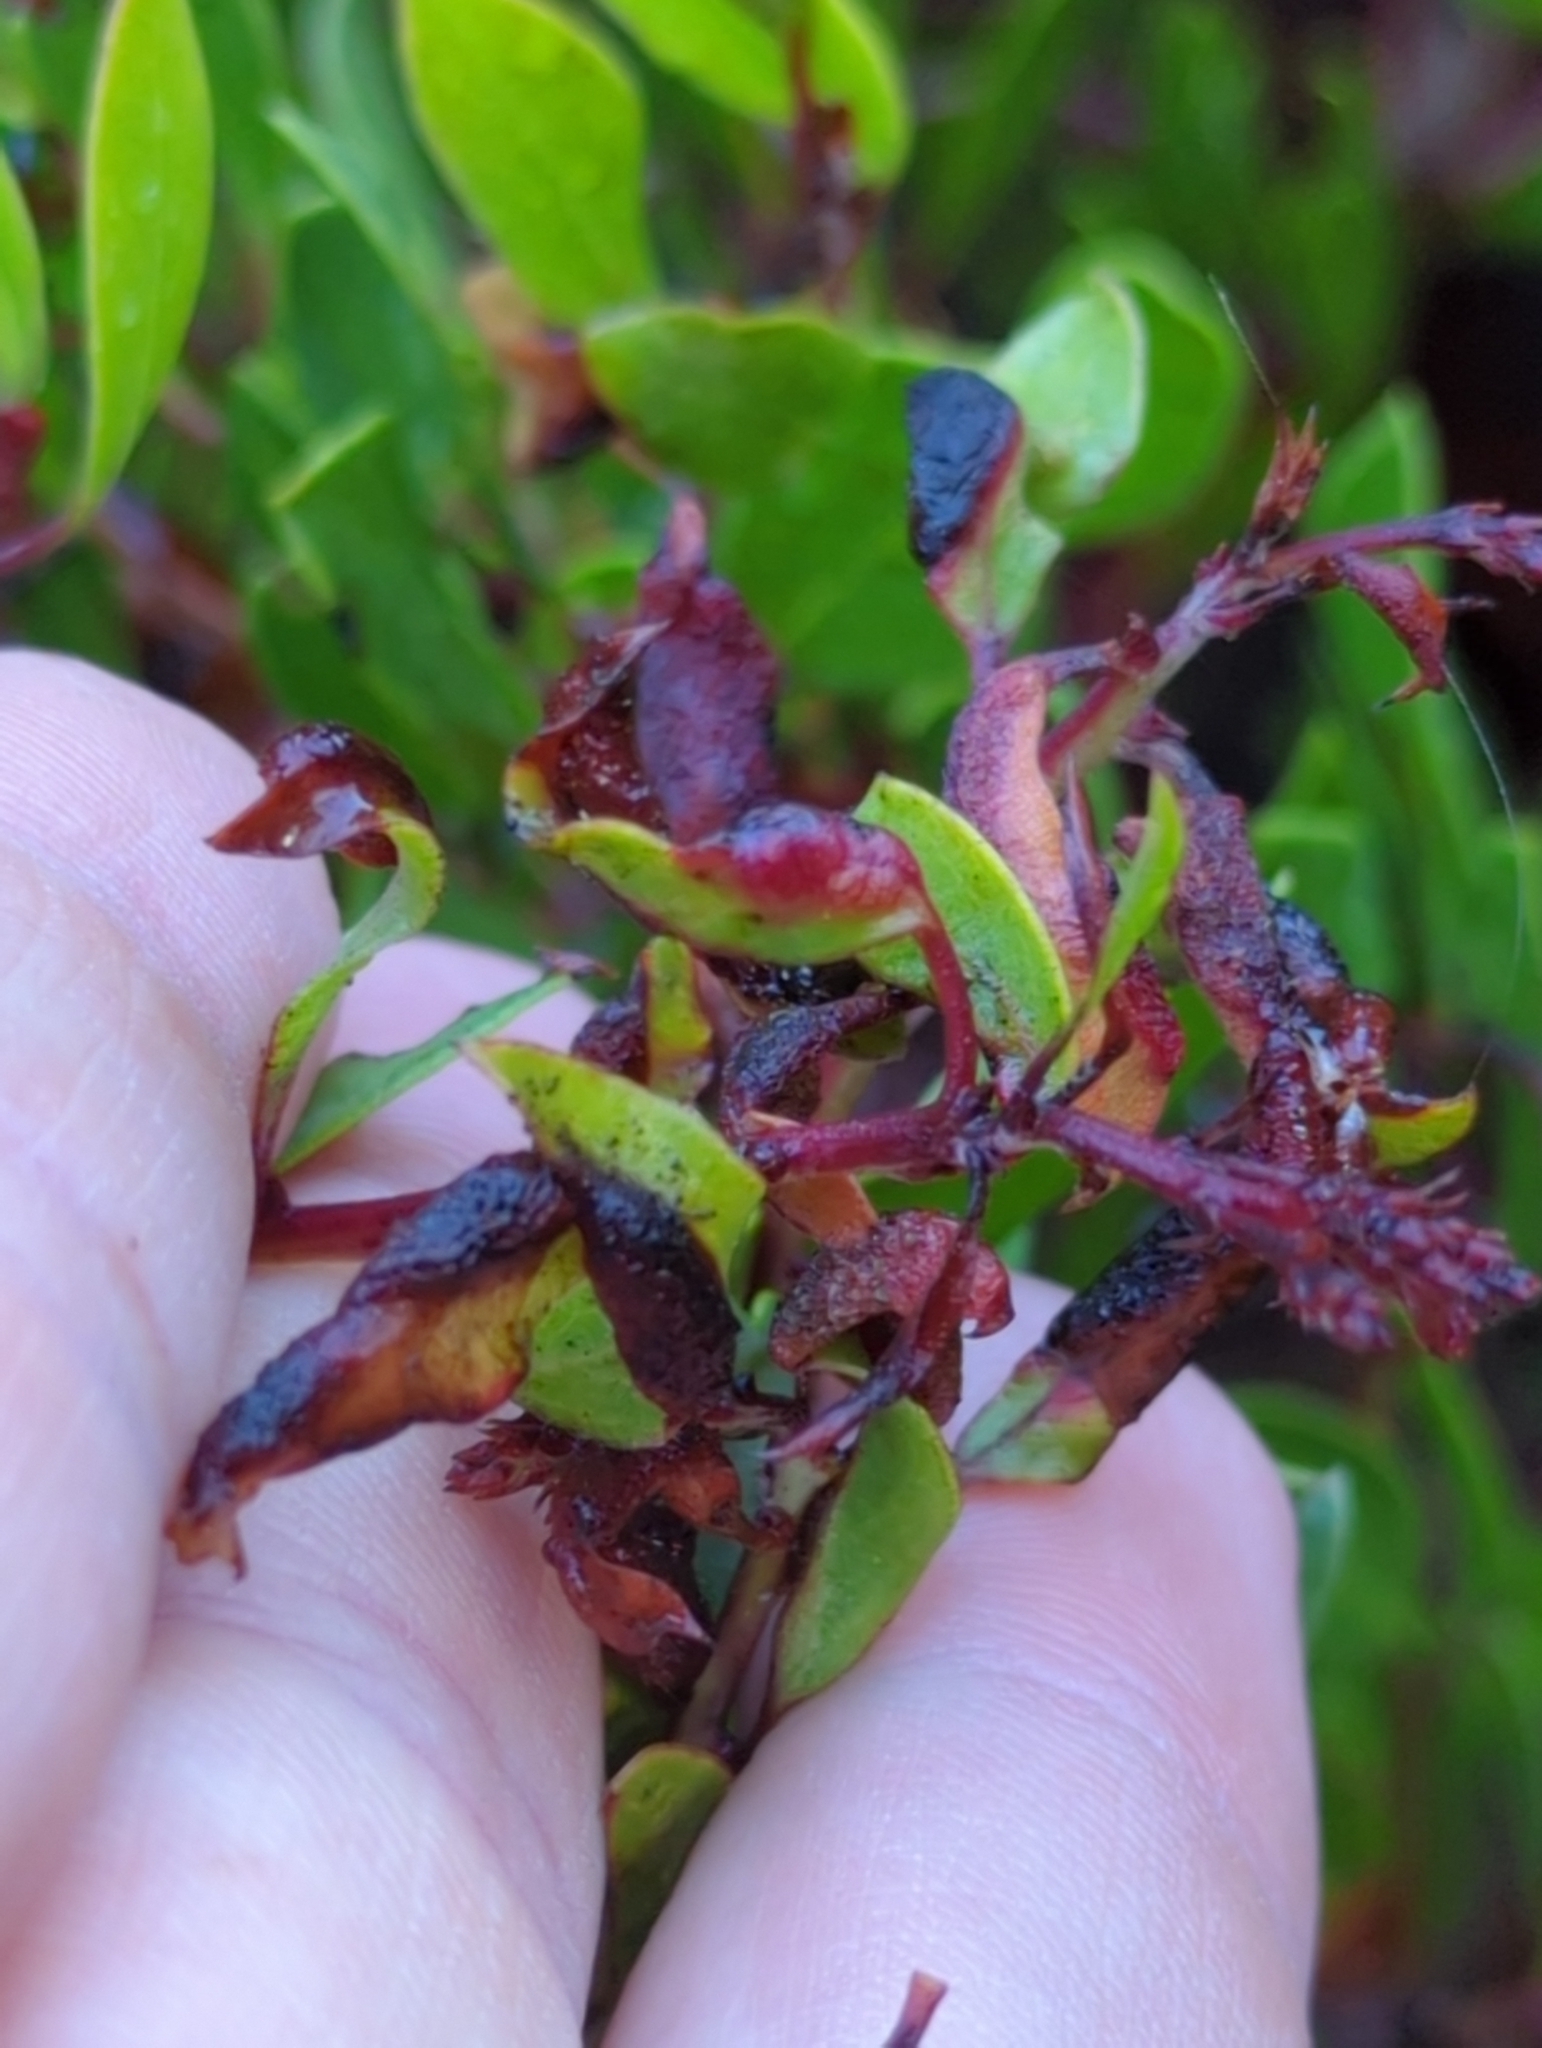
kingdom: Animalia
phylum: Arthropoda
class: Insecta
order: Hemiptera
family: Aphididae
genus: Tamalia
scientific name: Tamalia coweni
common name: Manzanita leafgall aphid
